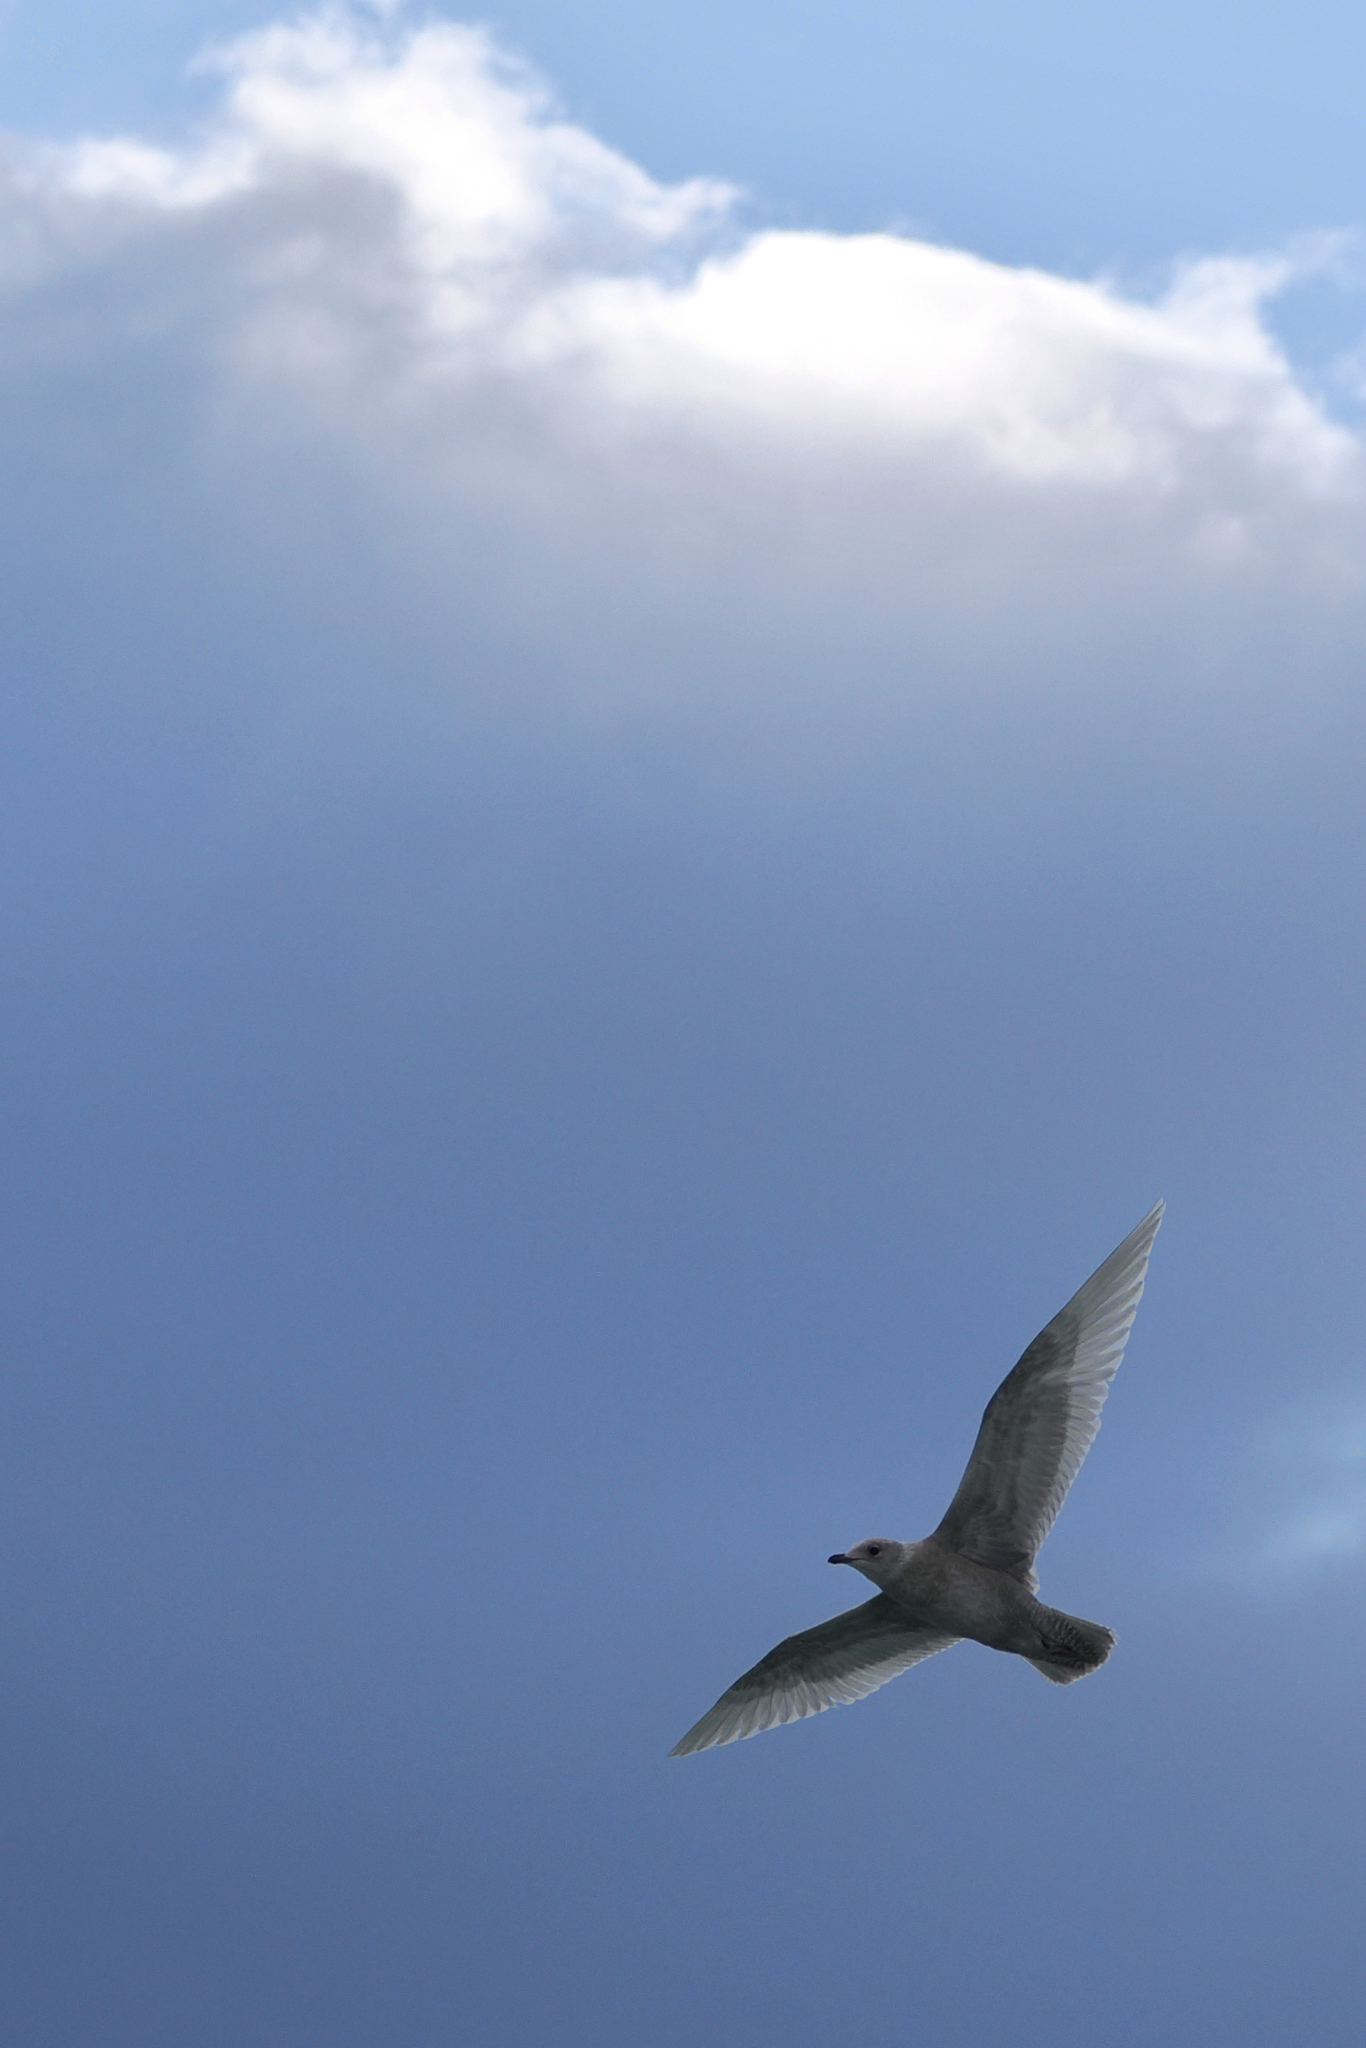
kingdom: Animalia
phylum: Chordata
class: Aves
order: Charadriiformes
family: Laridae
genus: Larus
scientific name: Larus hyperboreus
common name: Glaucous gull
